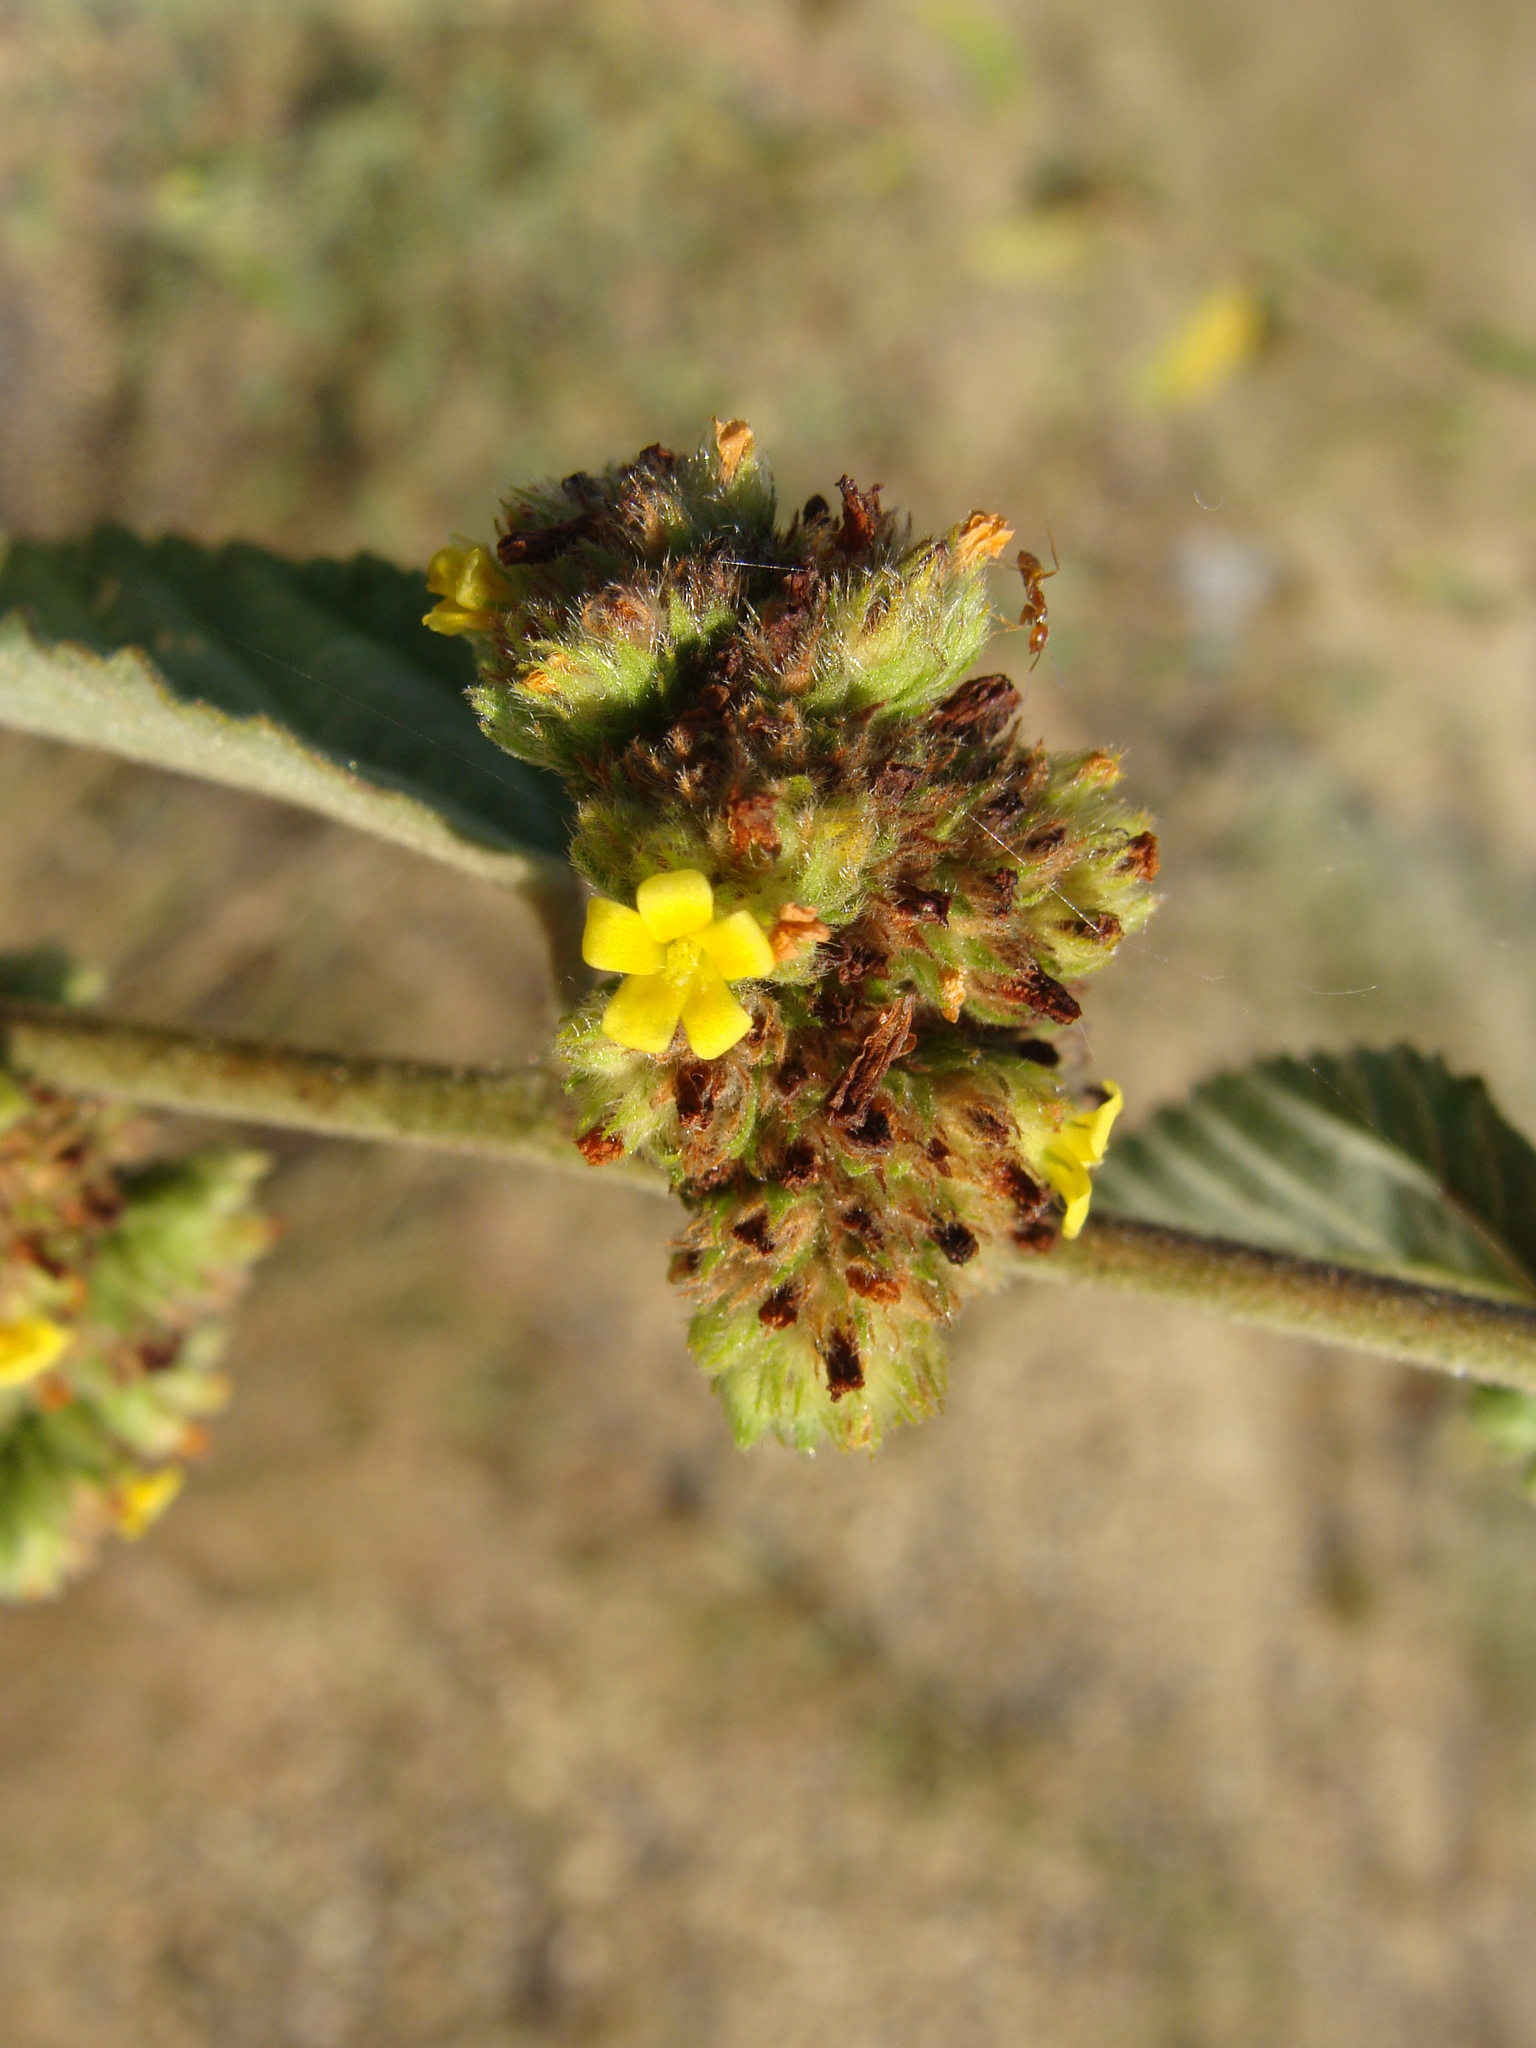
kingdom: Plantae
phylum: Tracheophyta
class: Magnoliopsida
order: Malvales
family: Malvaceae
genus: Waltheria
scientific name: Waltheria indica
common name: Leather-coat
